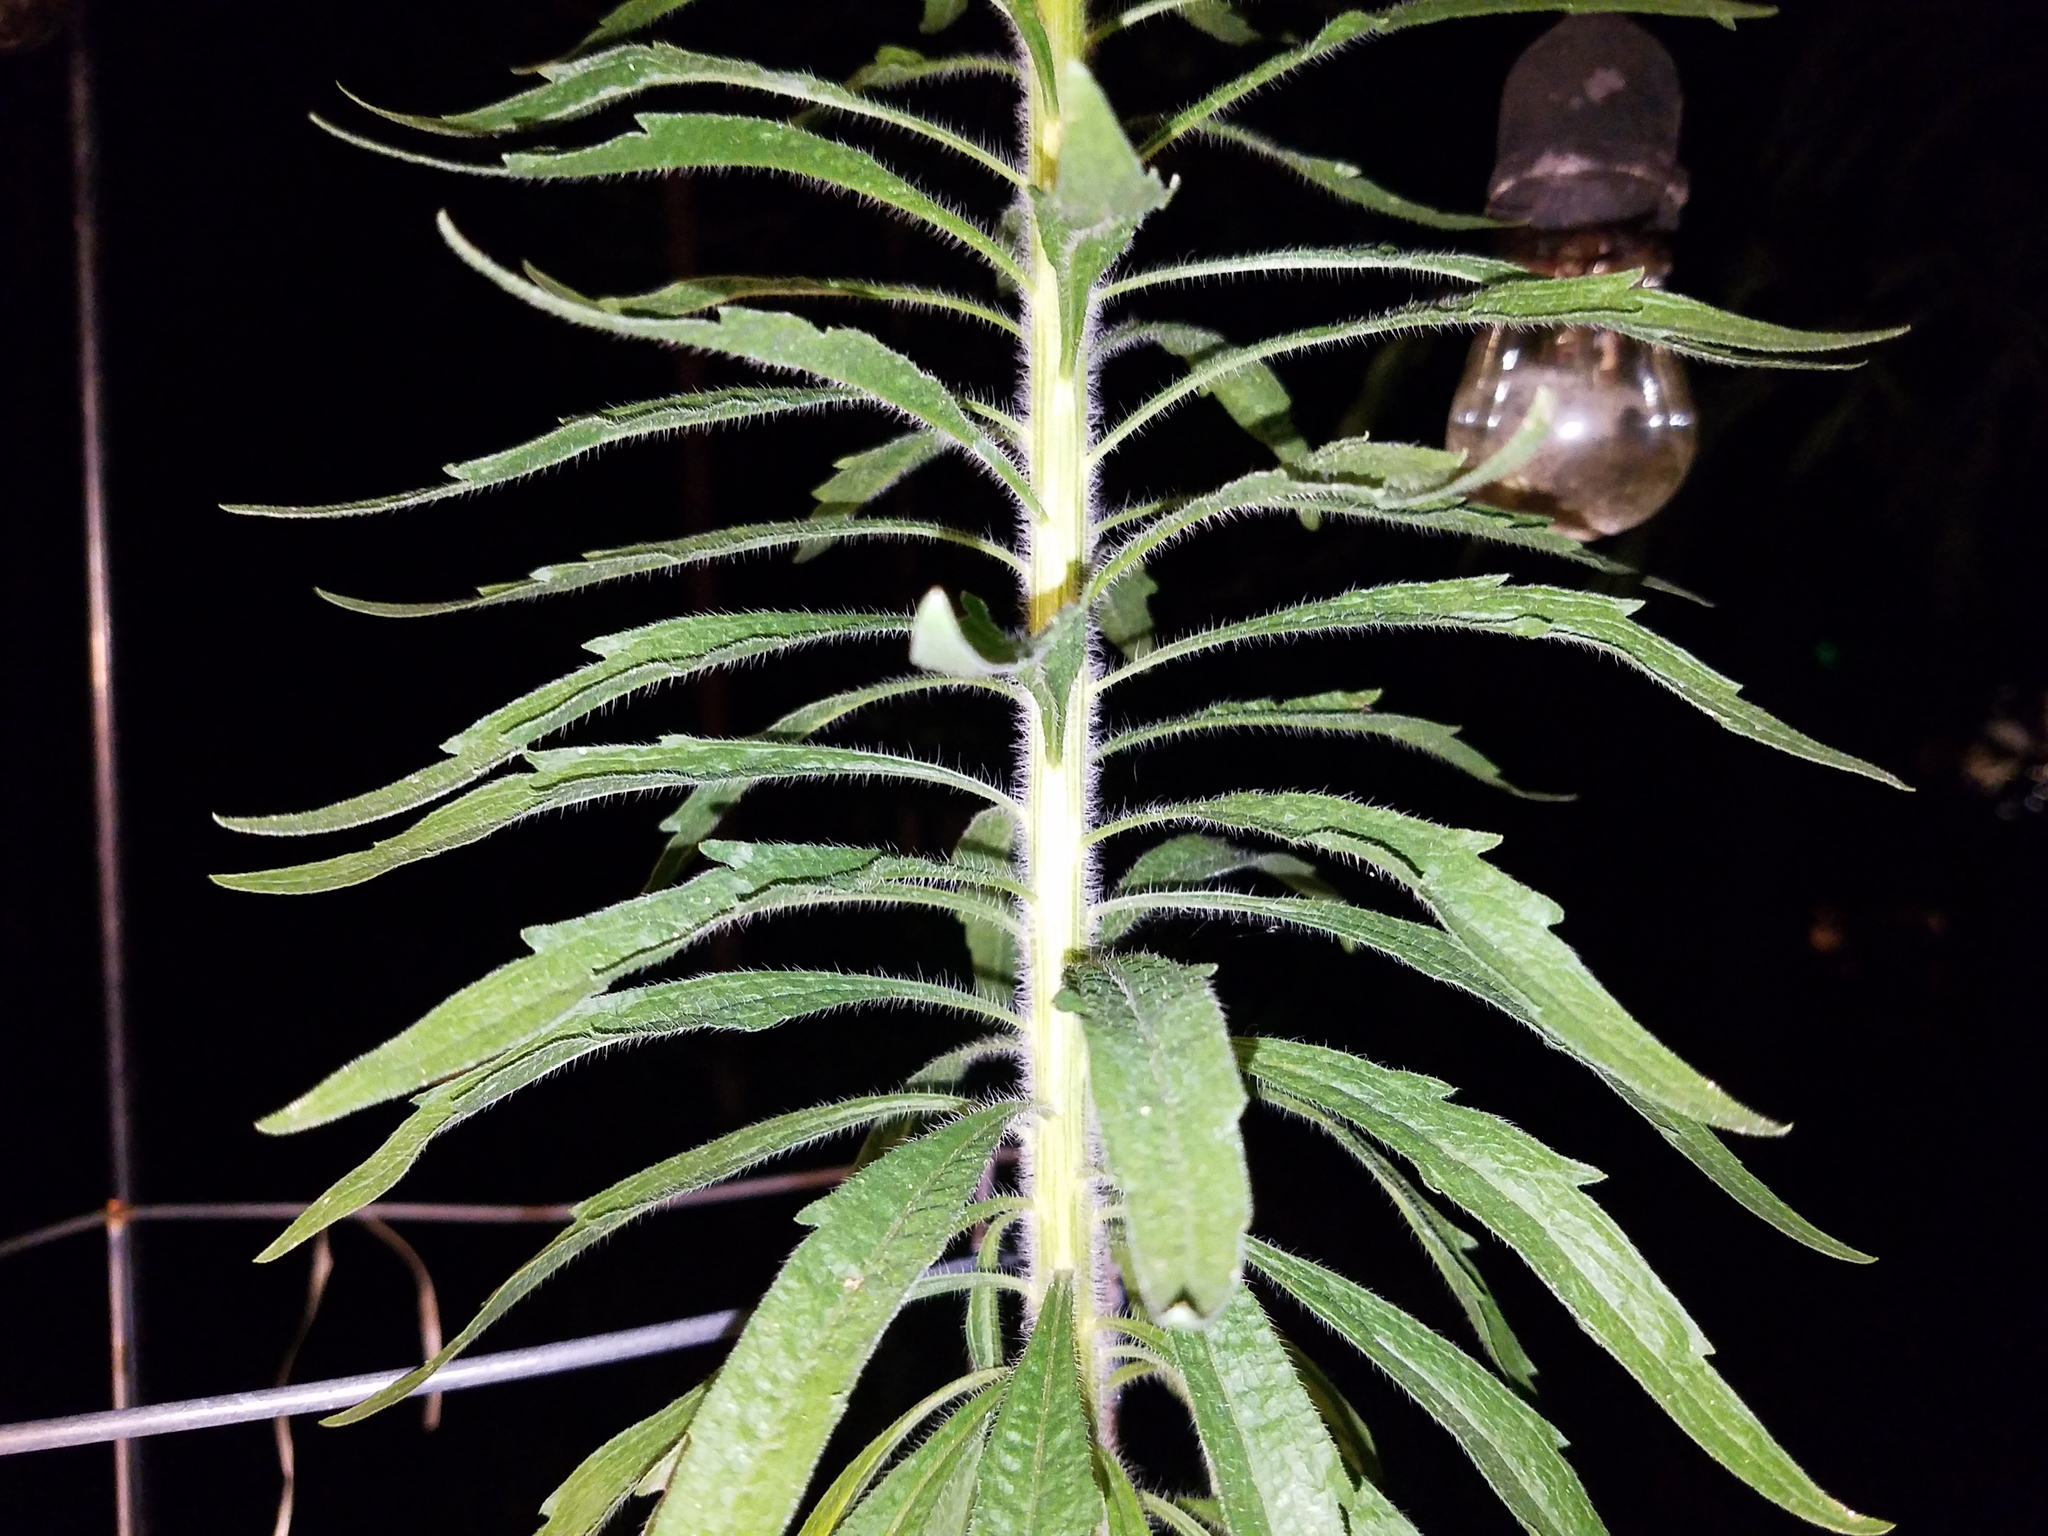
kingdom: Plantae
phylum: Tracheophyta
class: Magnoliopsida
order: Asterales
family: Asteraceae
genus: Erigeron
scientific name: Erigeron canadensis
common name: Canadian fleabane
